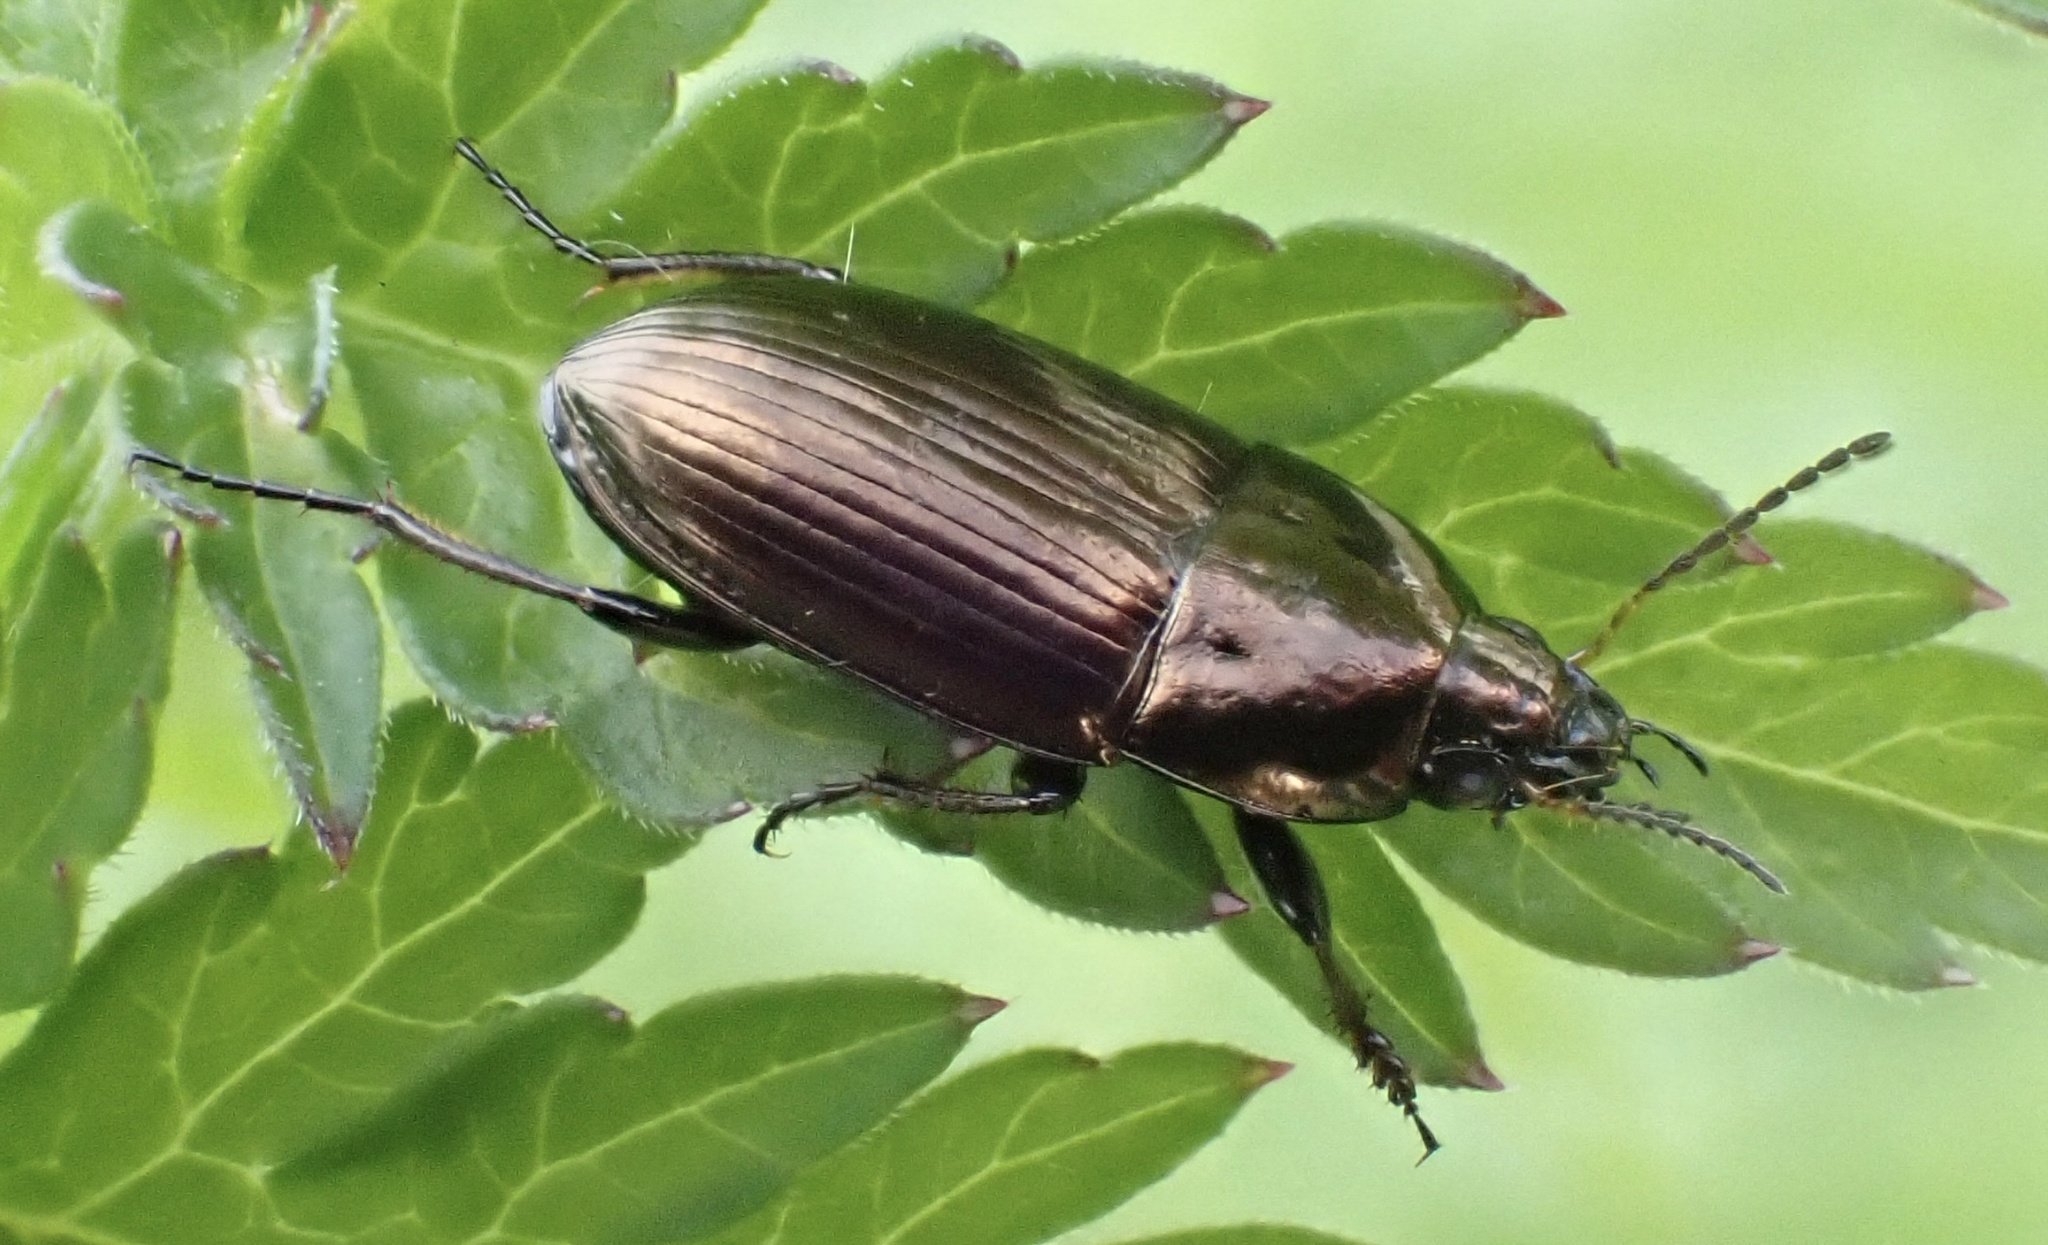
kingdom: Animalia
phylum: Arthropoda
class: Insecta
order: Coleoptera
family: Carabidae
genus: Amara
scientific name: Amara aenea
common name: Common sun beetle
